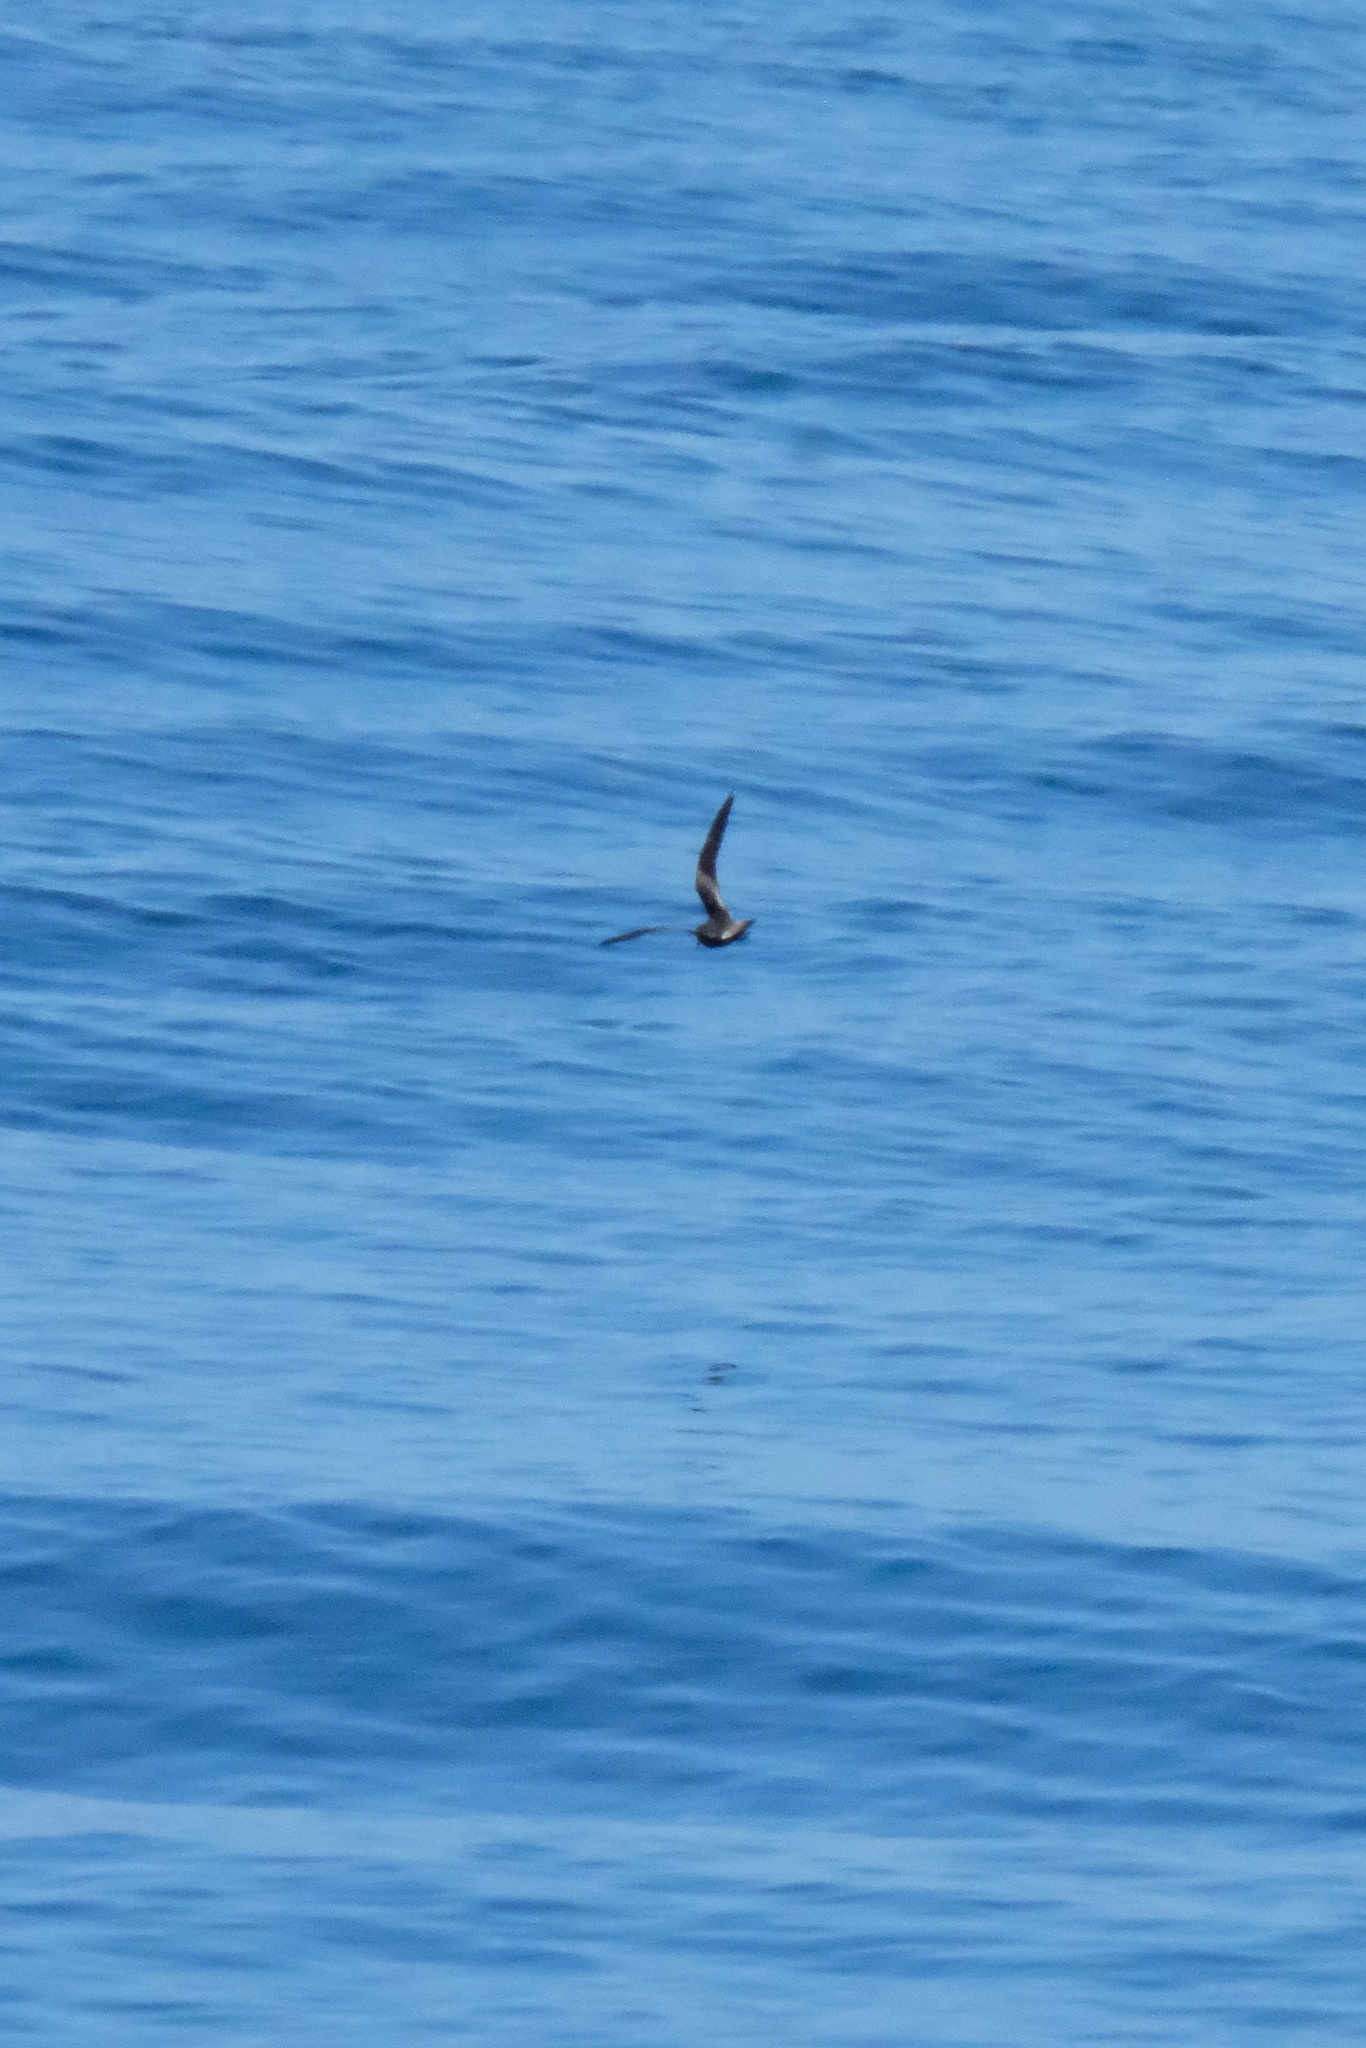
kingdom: Animalia
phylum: Chordata
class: Aves
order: Procellariiformes
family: Hydrobatidae
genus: Oceanodroma
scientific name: Oceanodroma leucorhoa
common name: Leach's storm-petrel
